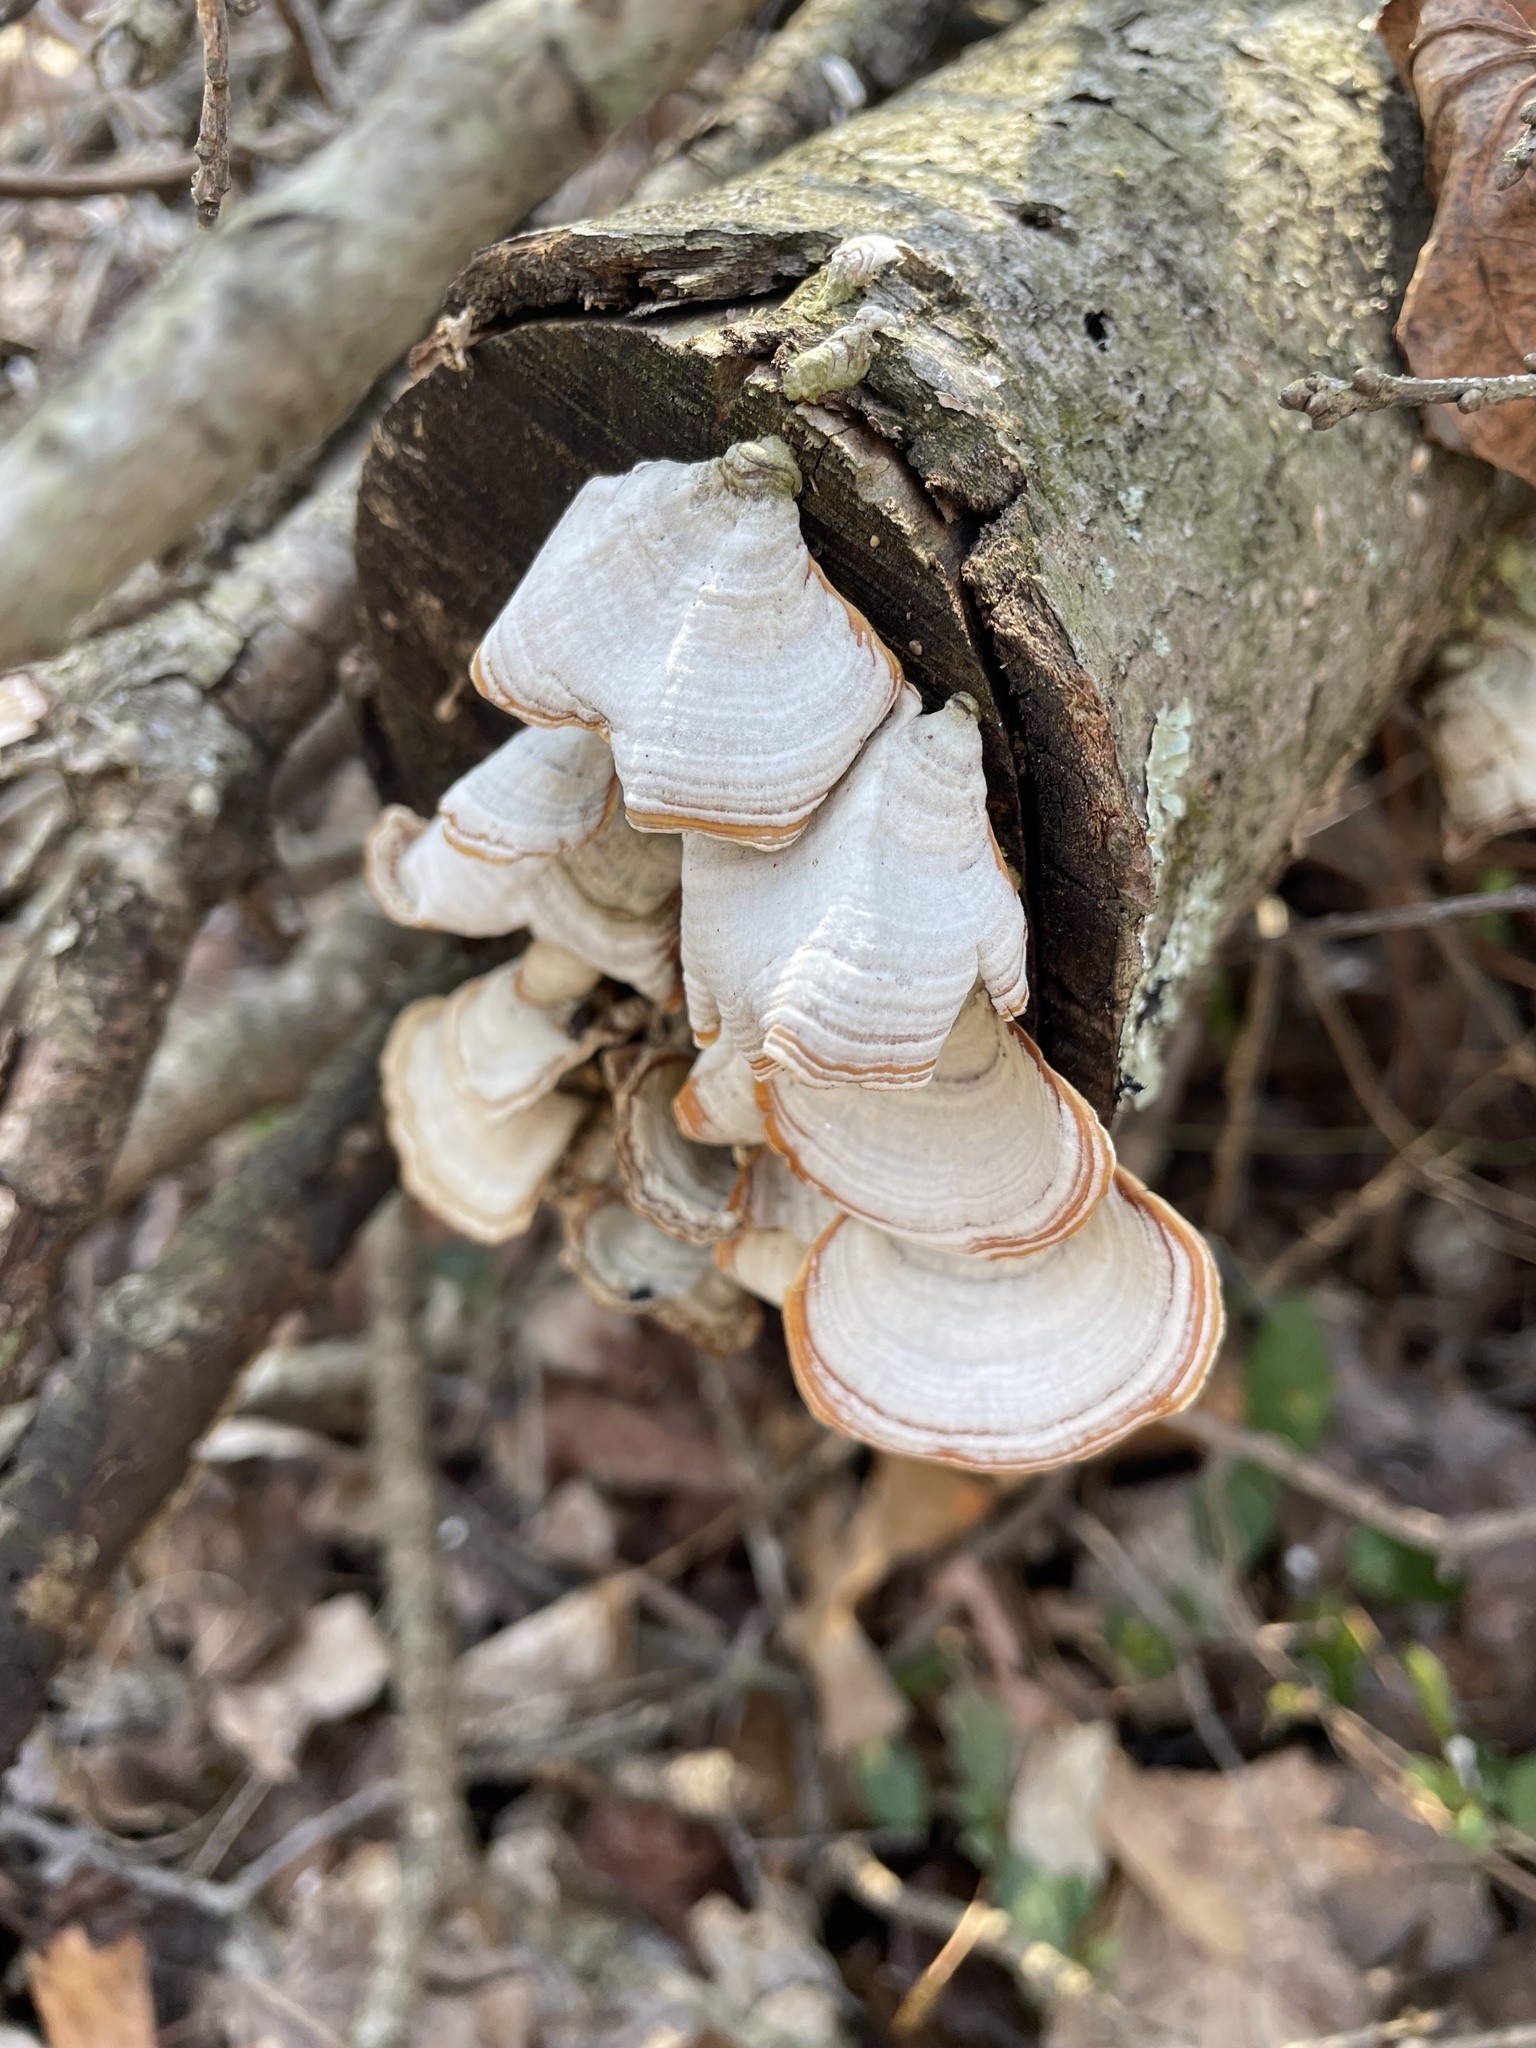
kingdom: Fungi
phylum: Basidiomycota
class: Agaricomycetes
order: Russulales
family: Stereaceae
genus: Stereum
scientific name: Stereum lobatum
